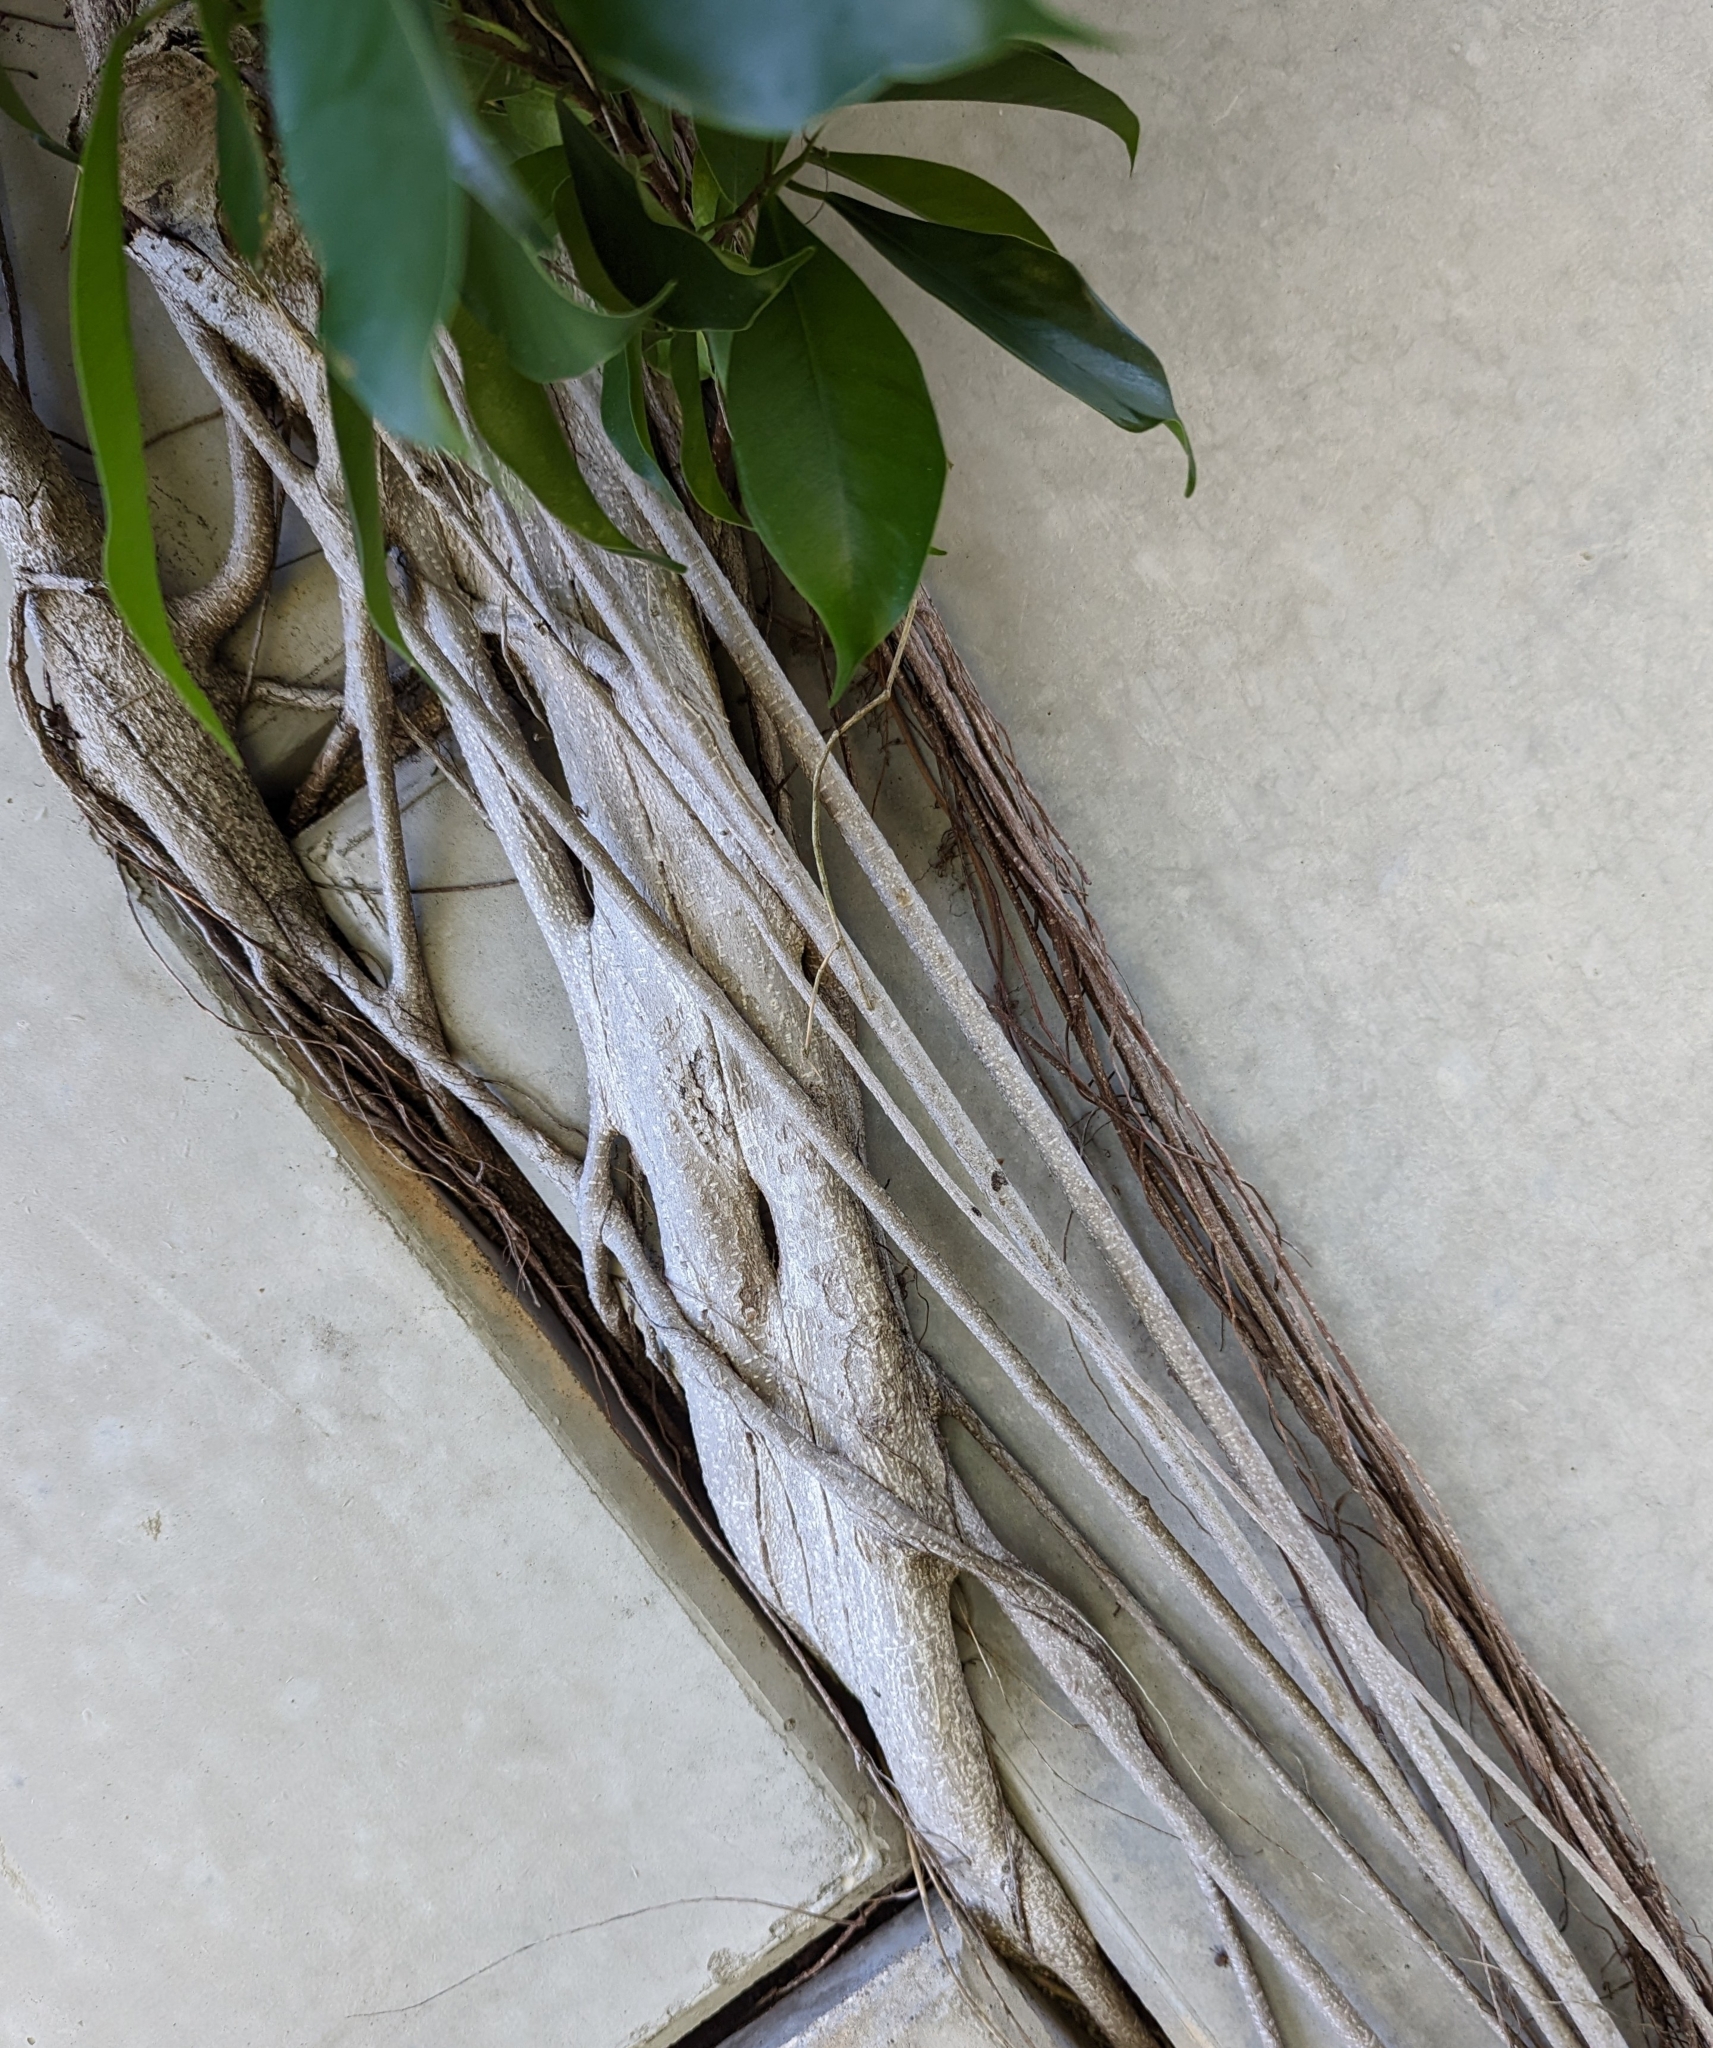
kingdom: Plantae
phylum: Tracheophyta
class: Magnoliopsida
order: Rosales
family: Moraceae
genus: Ficus
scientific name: Ficus microcarpa
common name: Chinese banyan
